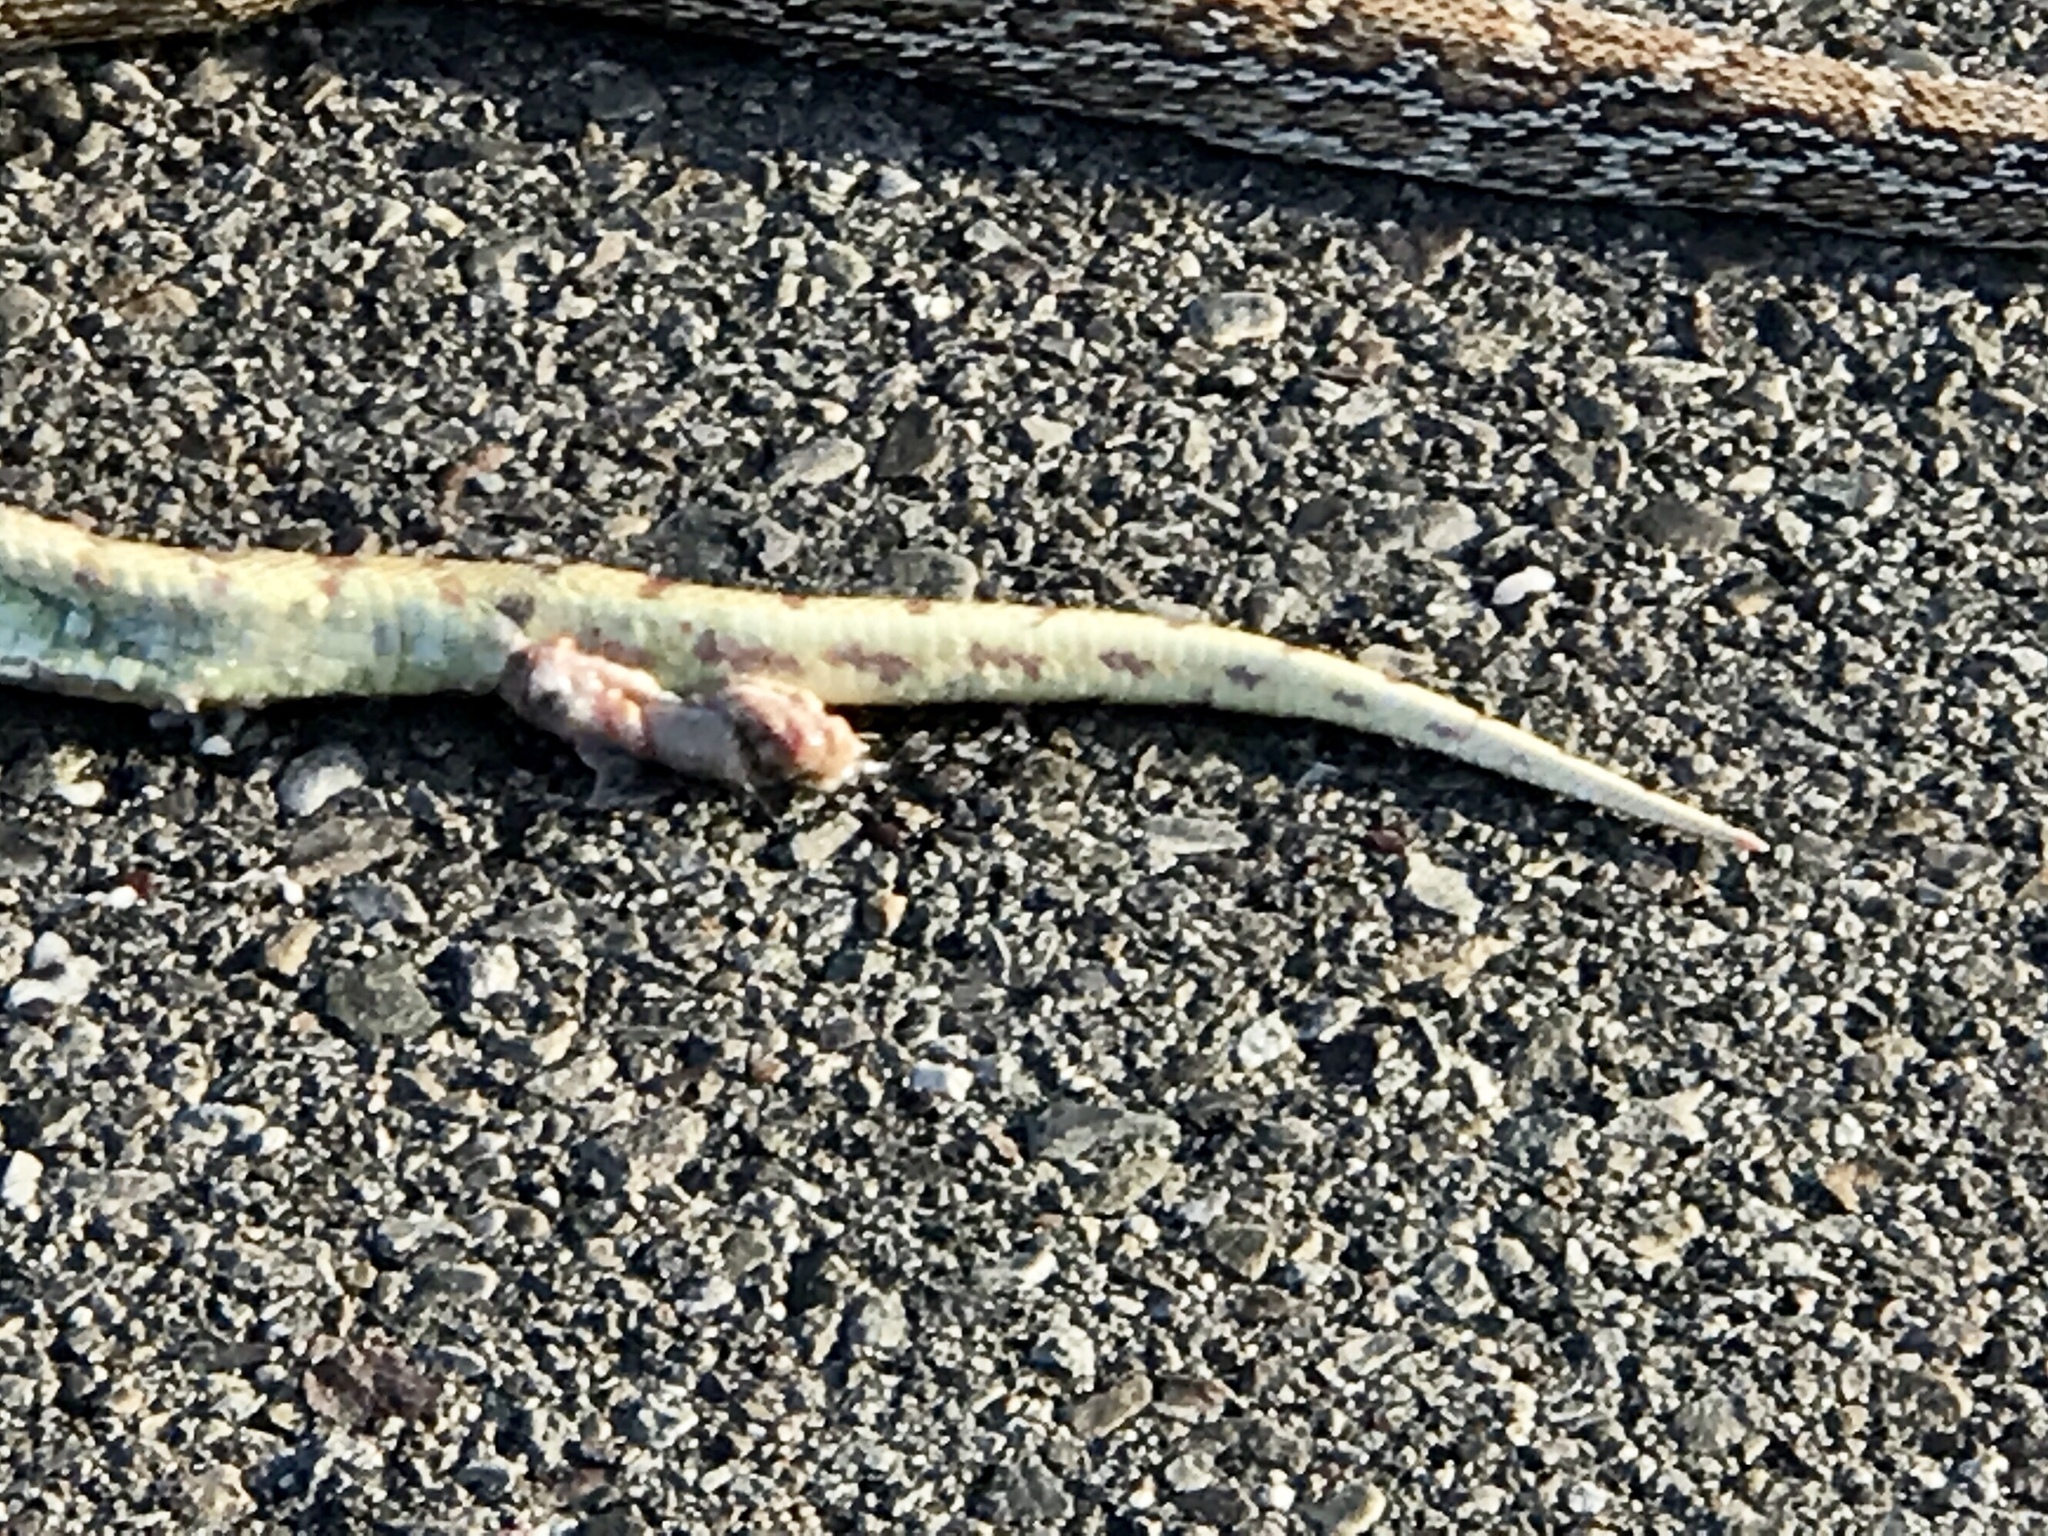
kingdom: Animalia
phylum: Chordata
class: Squamata
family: Colubridae
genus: Pituophis
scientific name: Pituophis catenifer
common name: Gopher snake
